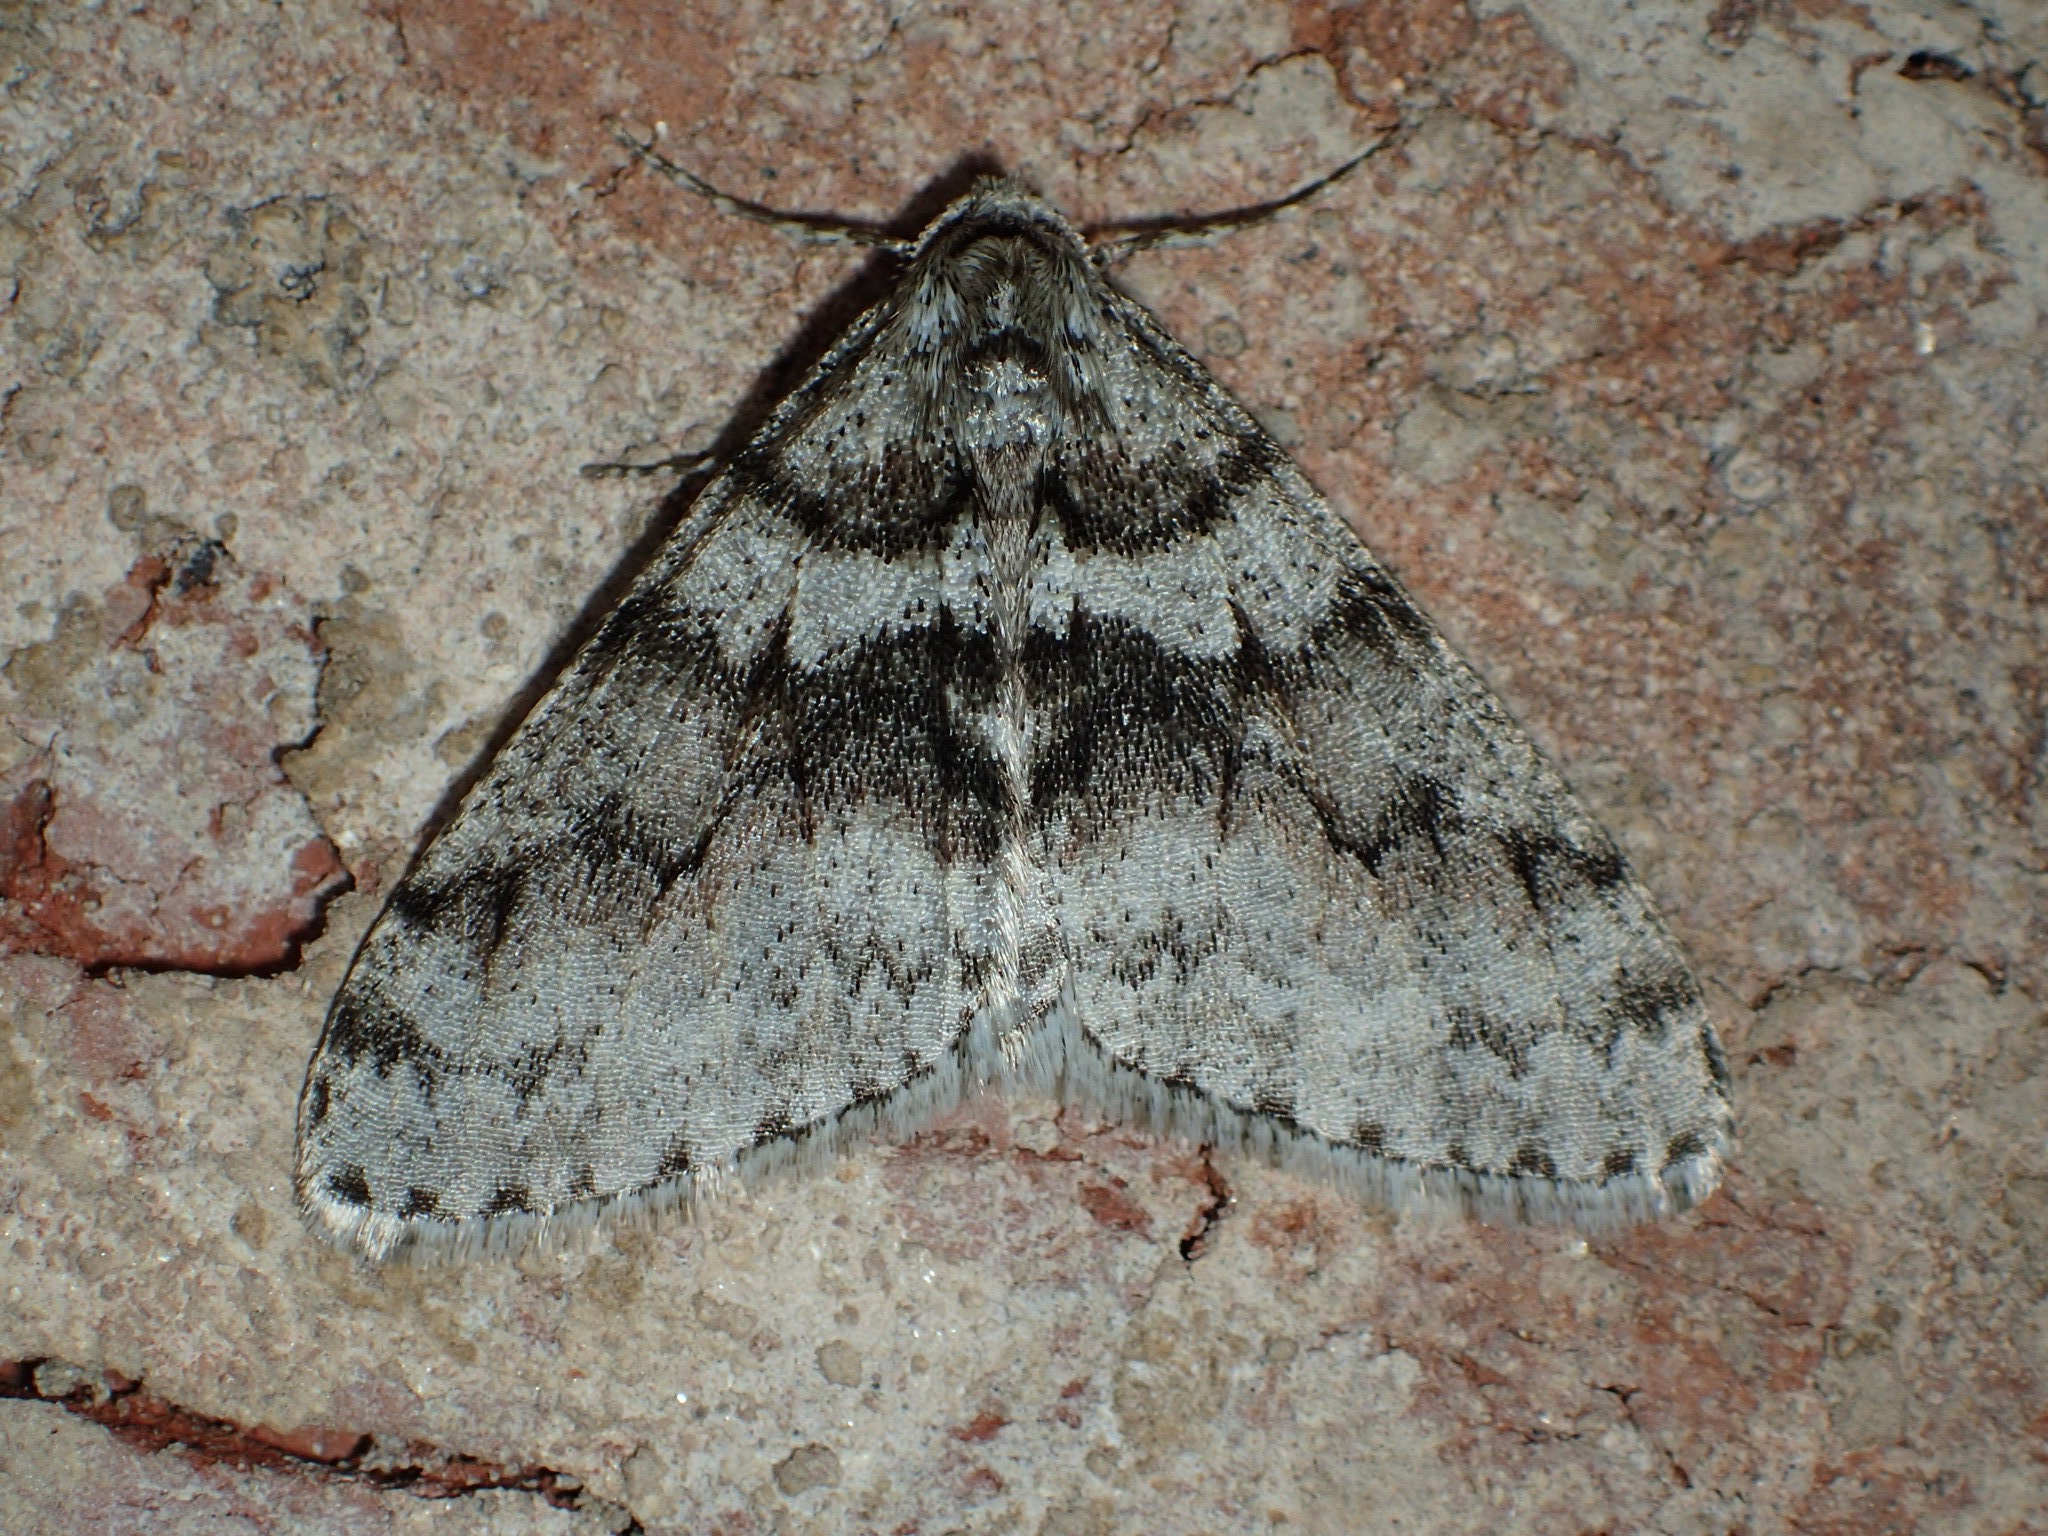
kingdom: Animalia
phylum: Arthropoda
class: Insecta
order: Lepidoptera
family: Geometridae
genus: Phigalia
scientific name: Phigalia denticulata
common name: Toothed phigalia
